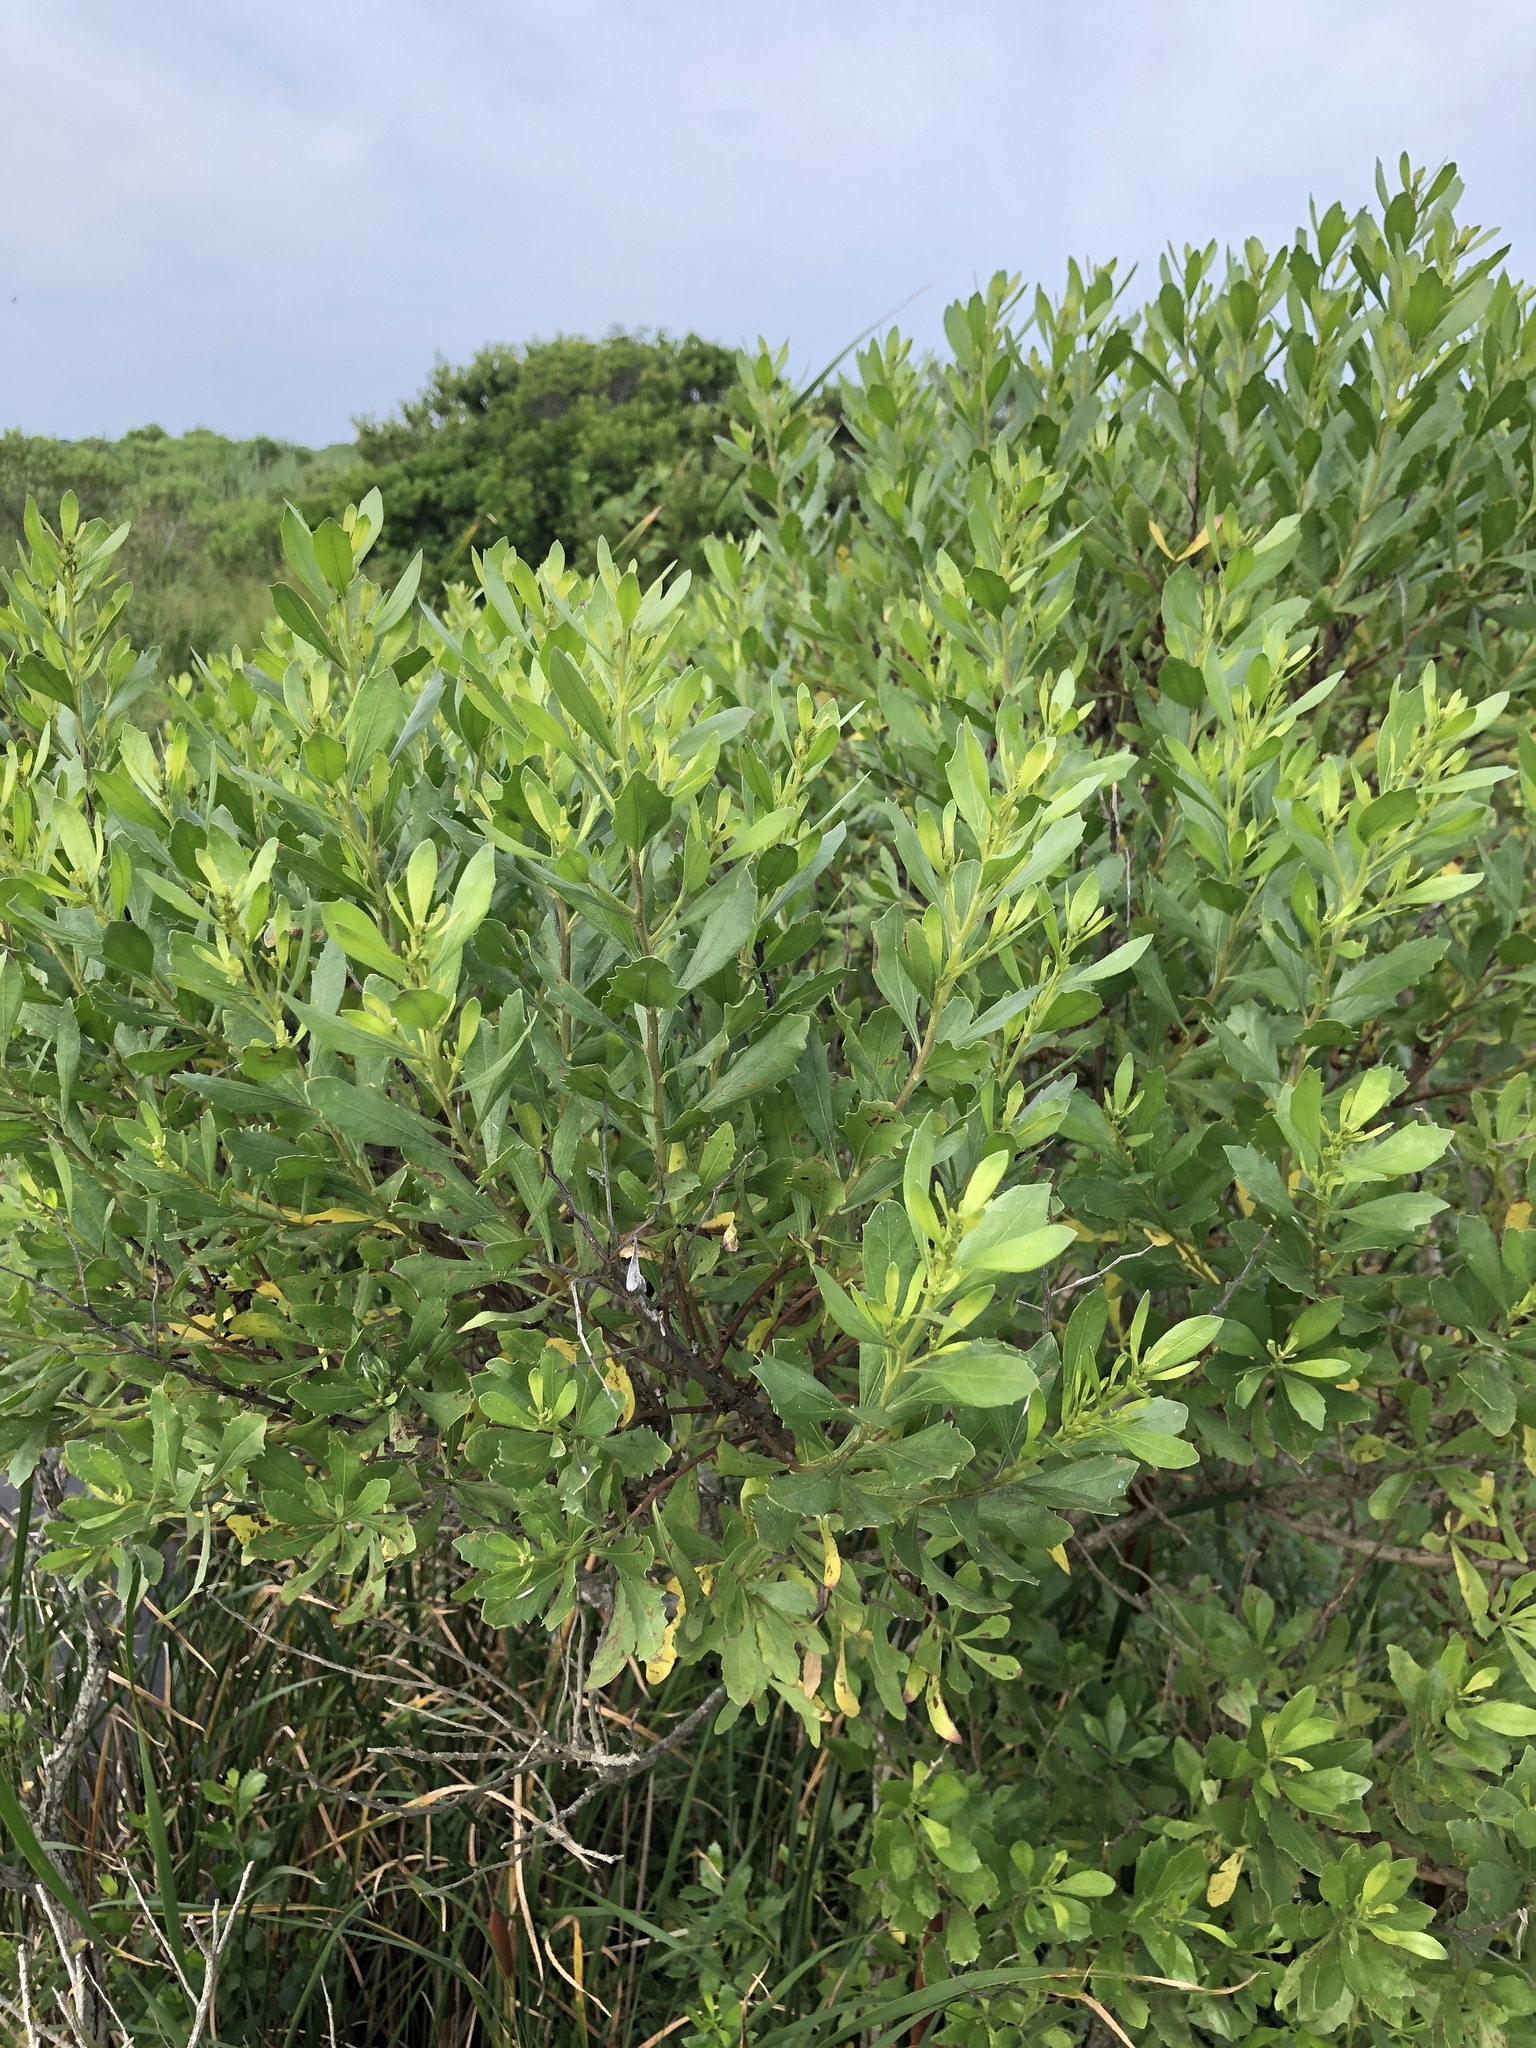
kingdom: Plantae
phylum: Tracheophyta
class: Magnoliopsida
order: Asterales
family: Asteraceae
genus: Baccharis
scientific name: Baccharis halimifolia
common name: Eastern baccharis
